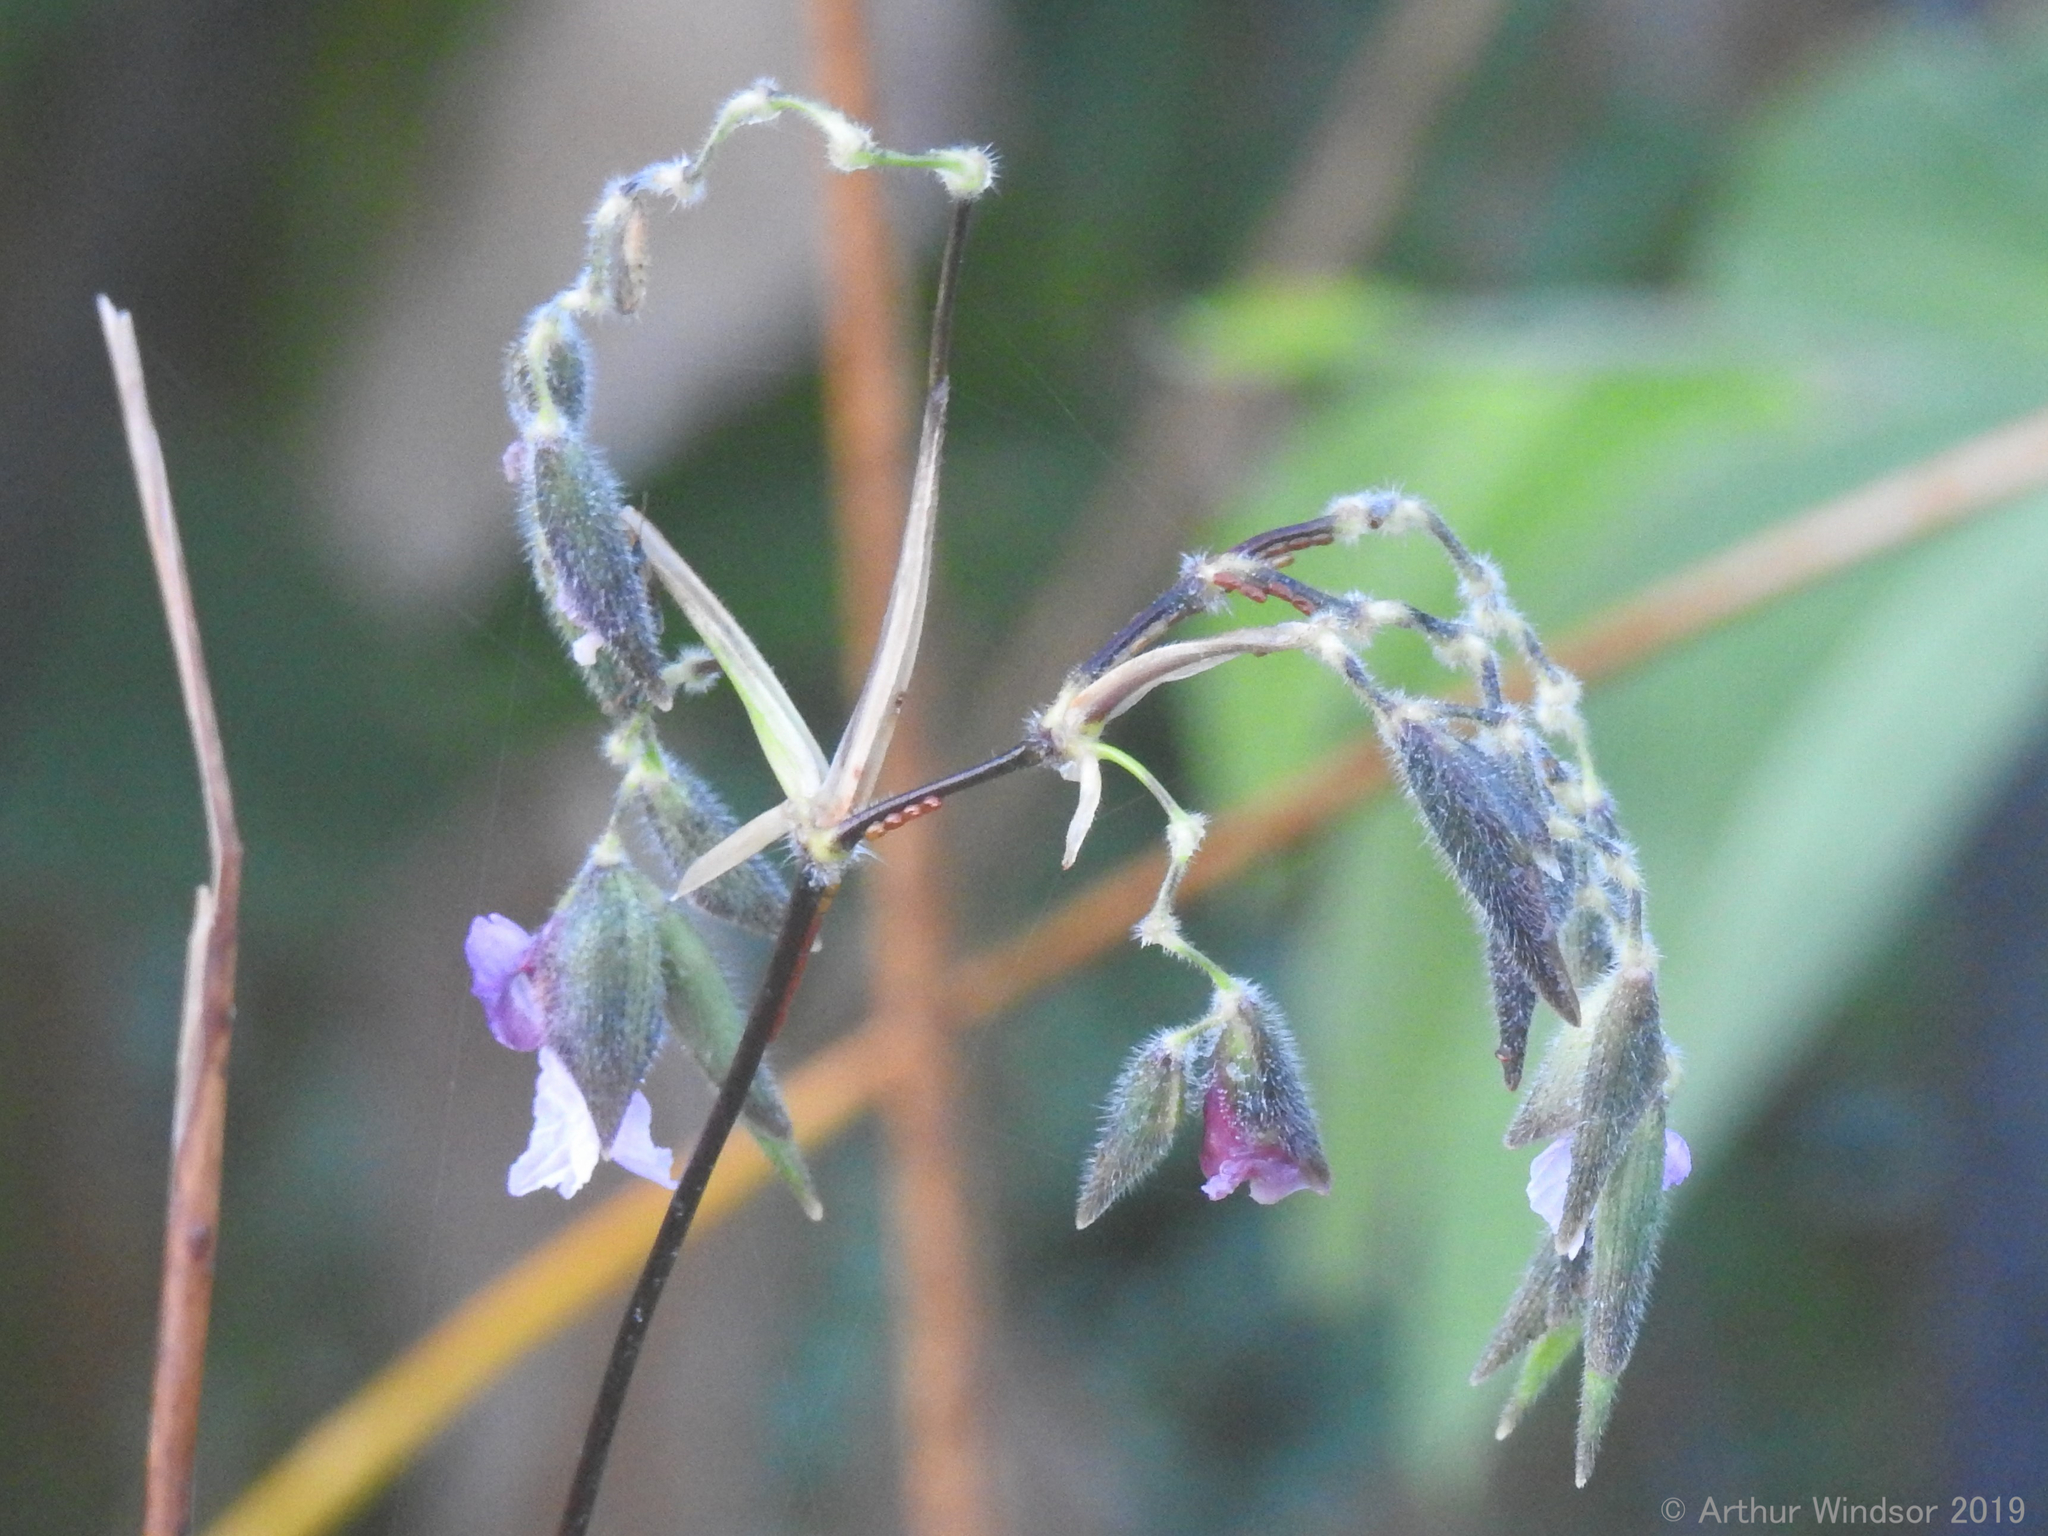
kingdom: Plantae
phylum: Tracheophyta
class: Liliopsida
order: Zingiberales
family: Marantaceae
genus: Thalia
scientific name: Thalia geniculata
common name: Arrowroot
